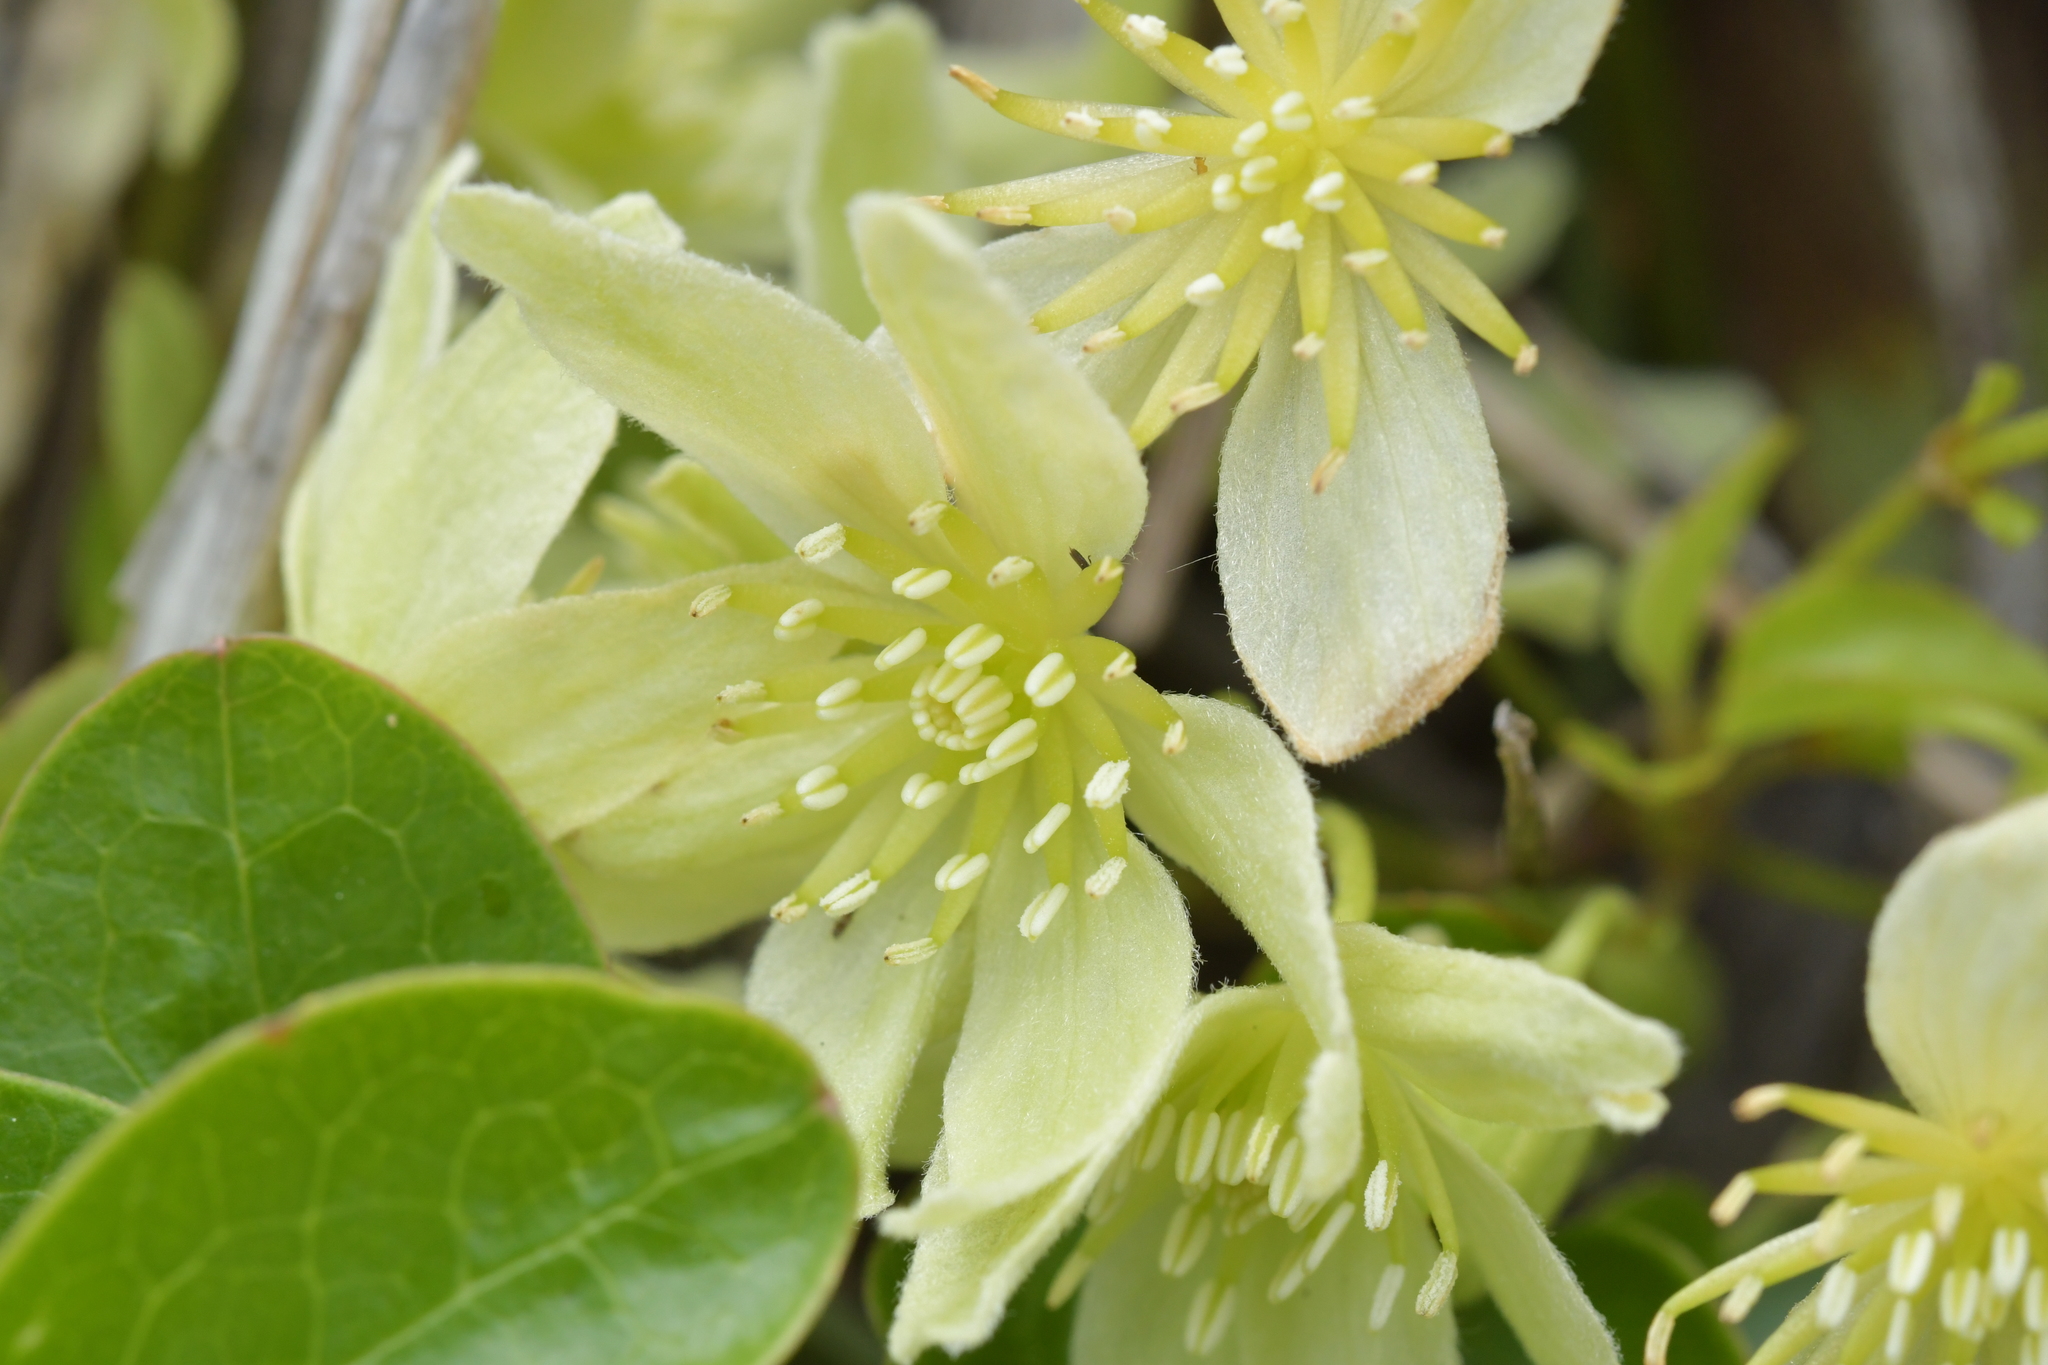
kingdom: Plantae
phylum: Tracheophyta
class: Magnoliopsida
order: Ranunculales
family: Ranunculaceae
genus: Clematis
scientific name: Clematis forsteri
